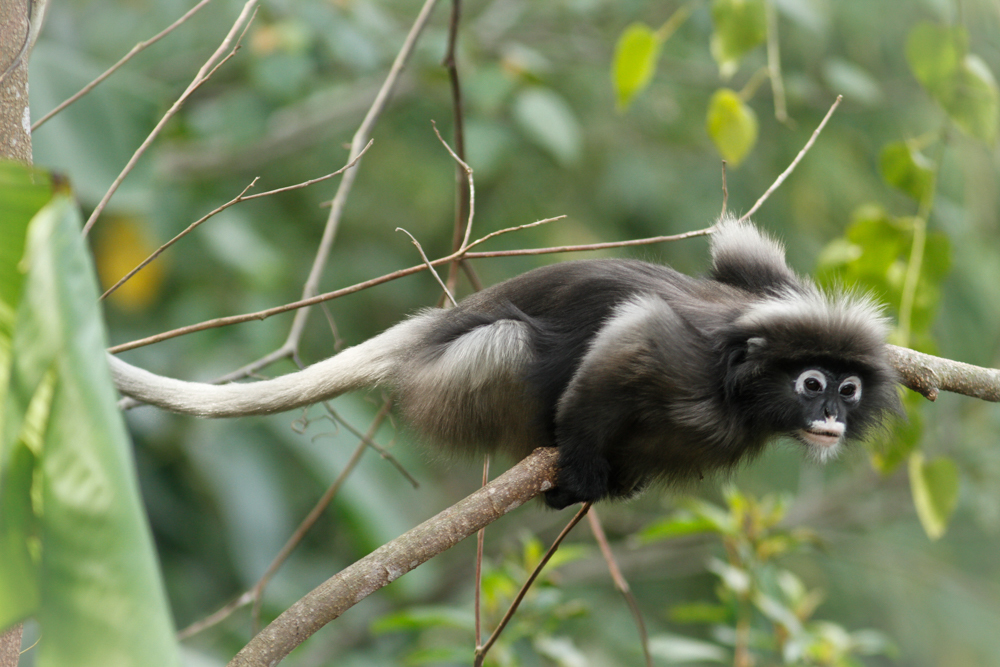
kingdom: Animalia
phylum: Chordata
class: Mammalia
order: Primates
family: Cercopithecidae
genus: Trachypithecus
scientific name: Trachypithecus obscurus
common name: Dusky leaf-monkey
